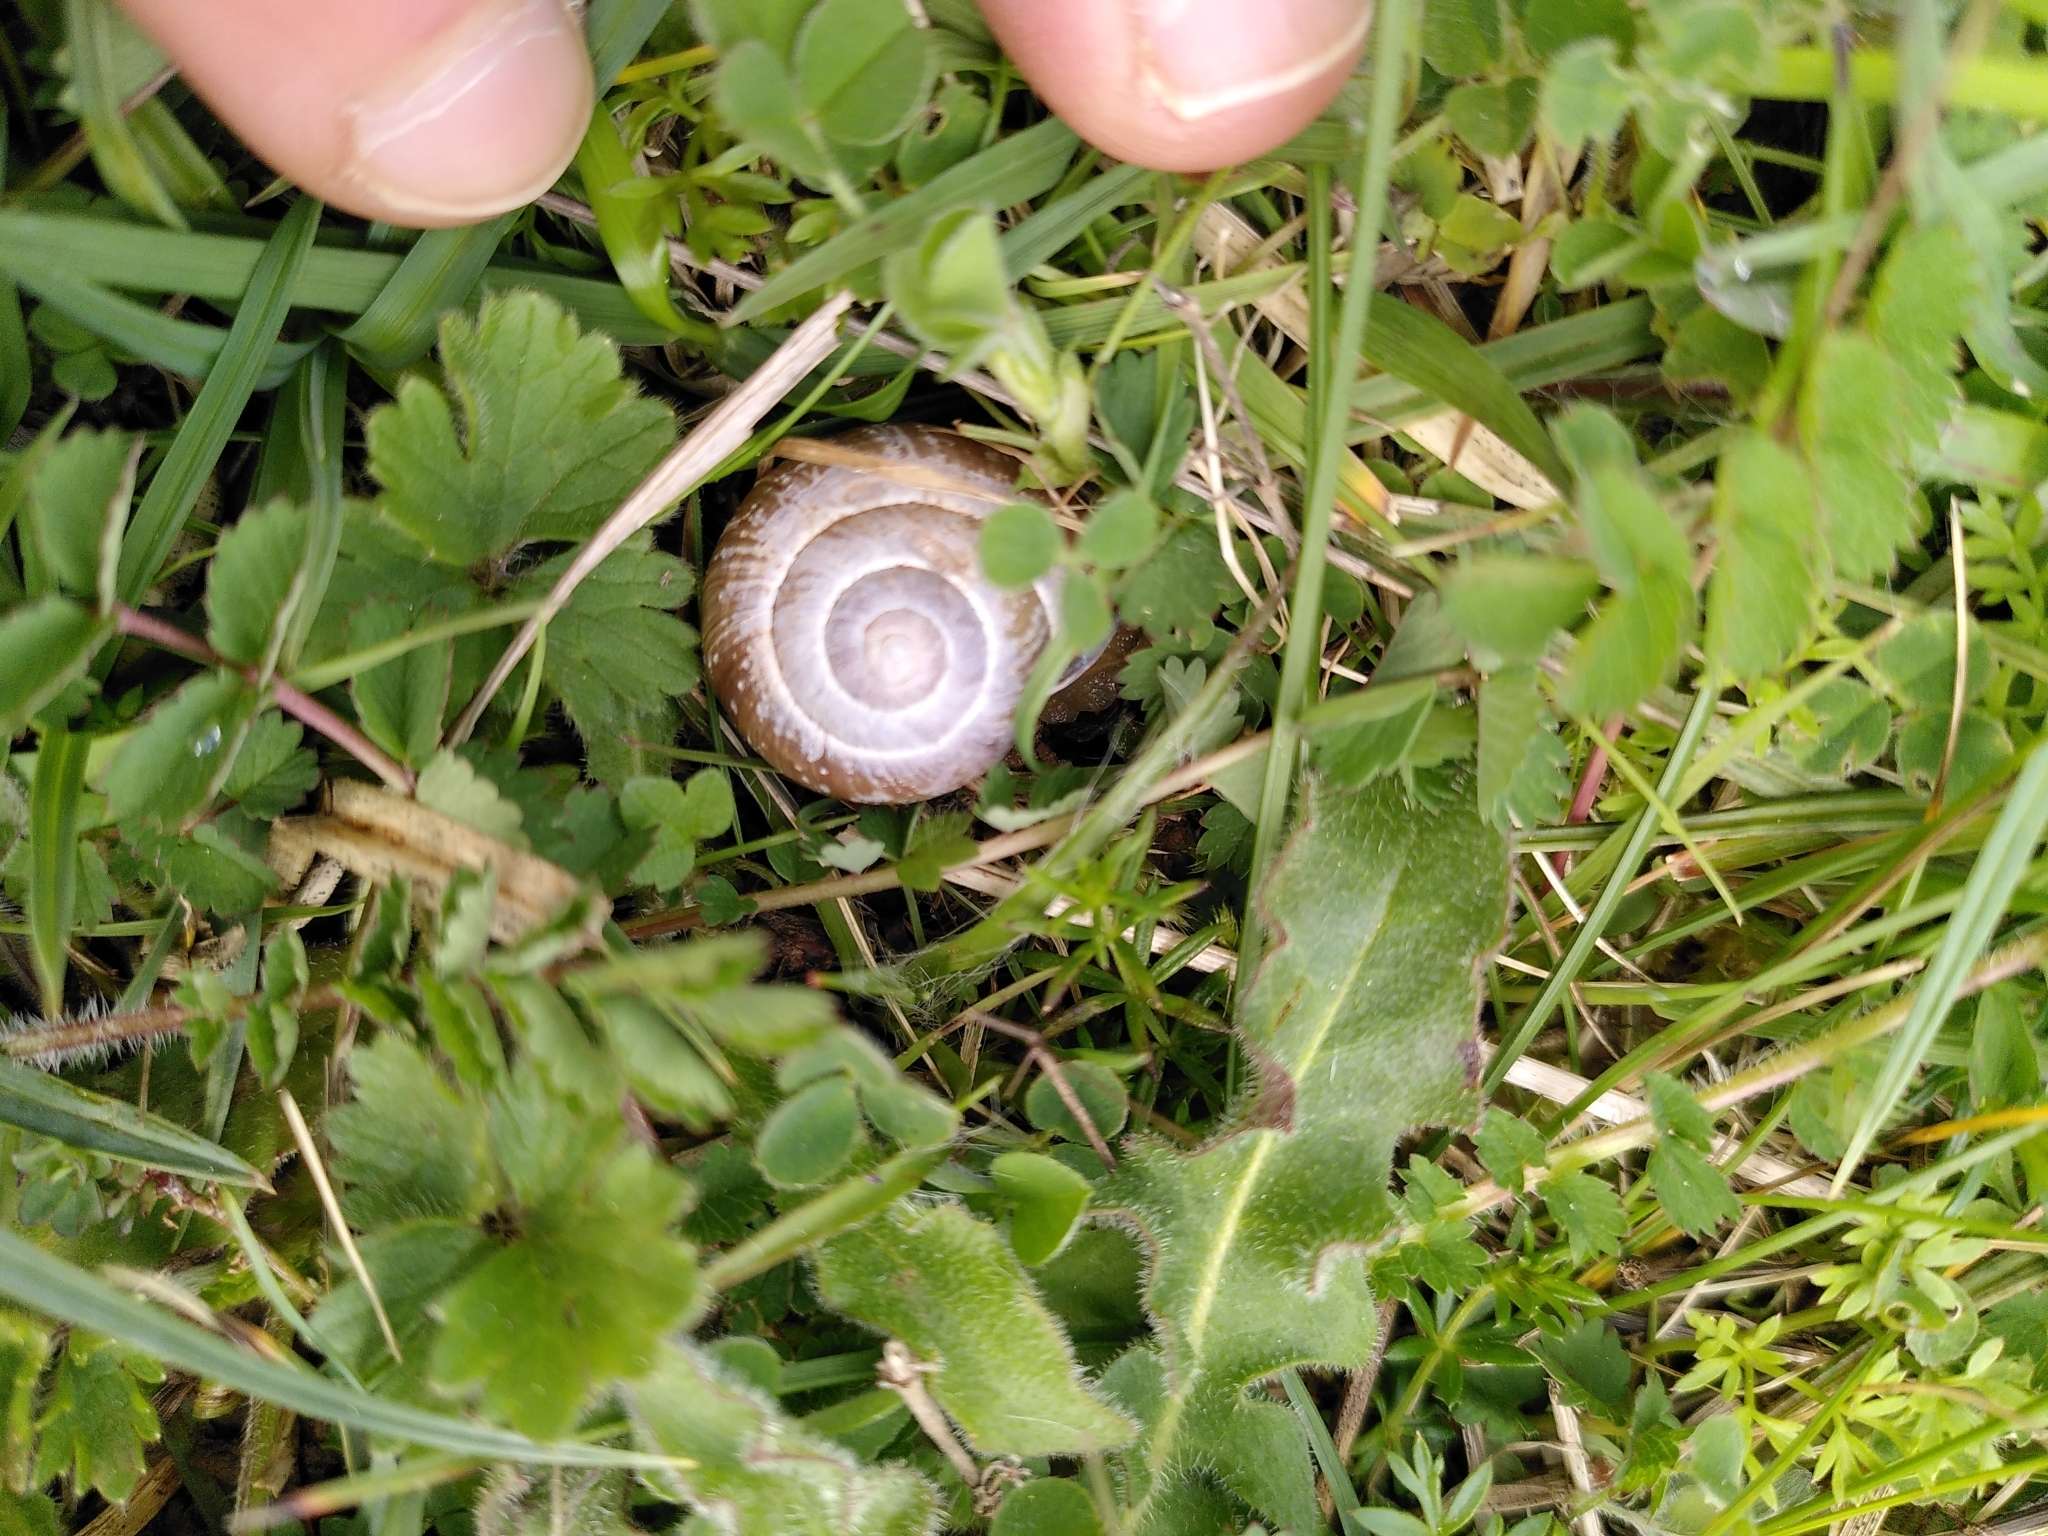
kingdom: Animalia
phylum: Mollusca
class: Gastropoda
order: Stylommatophora
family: Helicidae
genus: Cepaea
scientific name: Cepaea nemoralis
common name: Grovesnail
